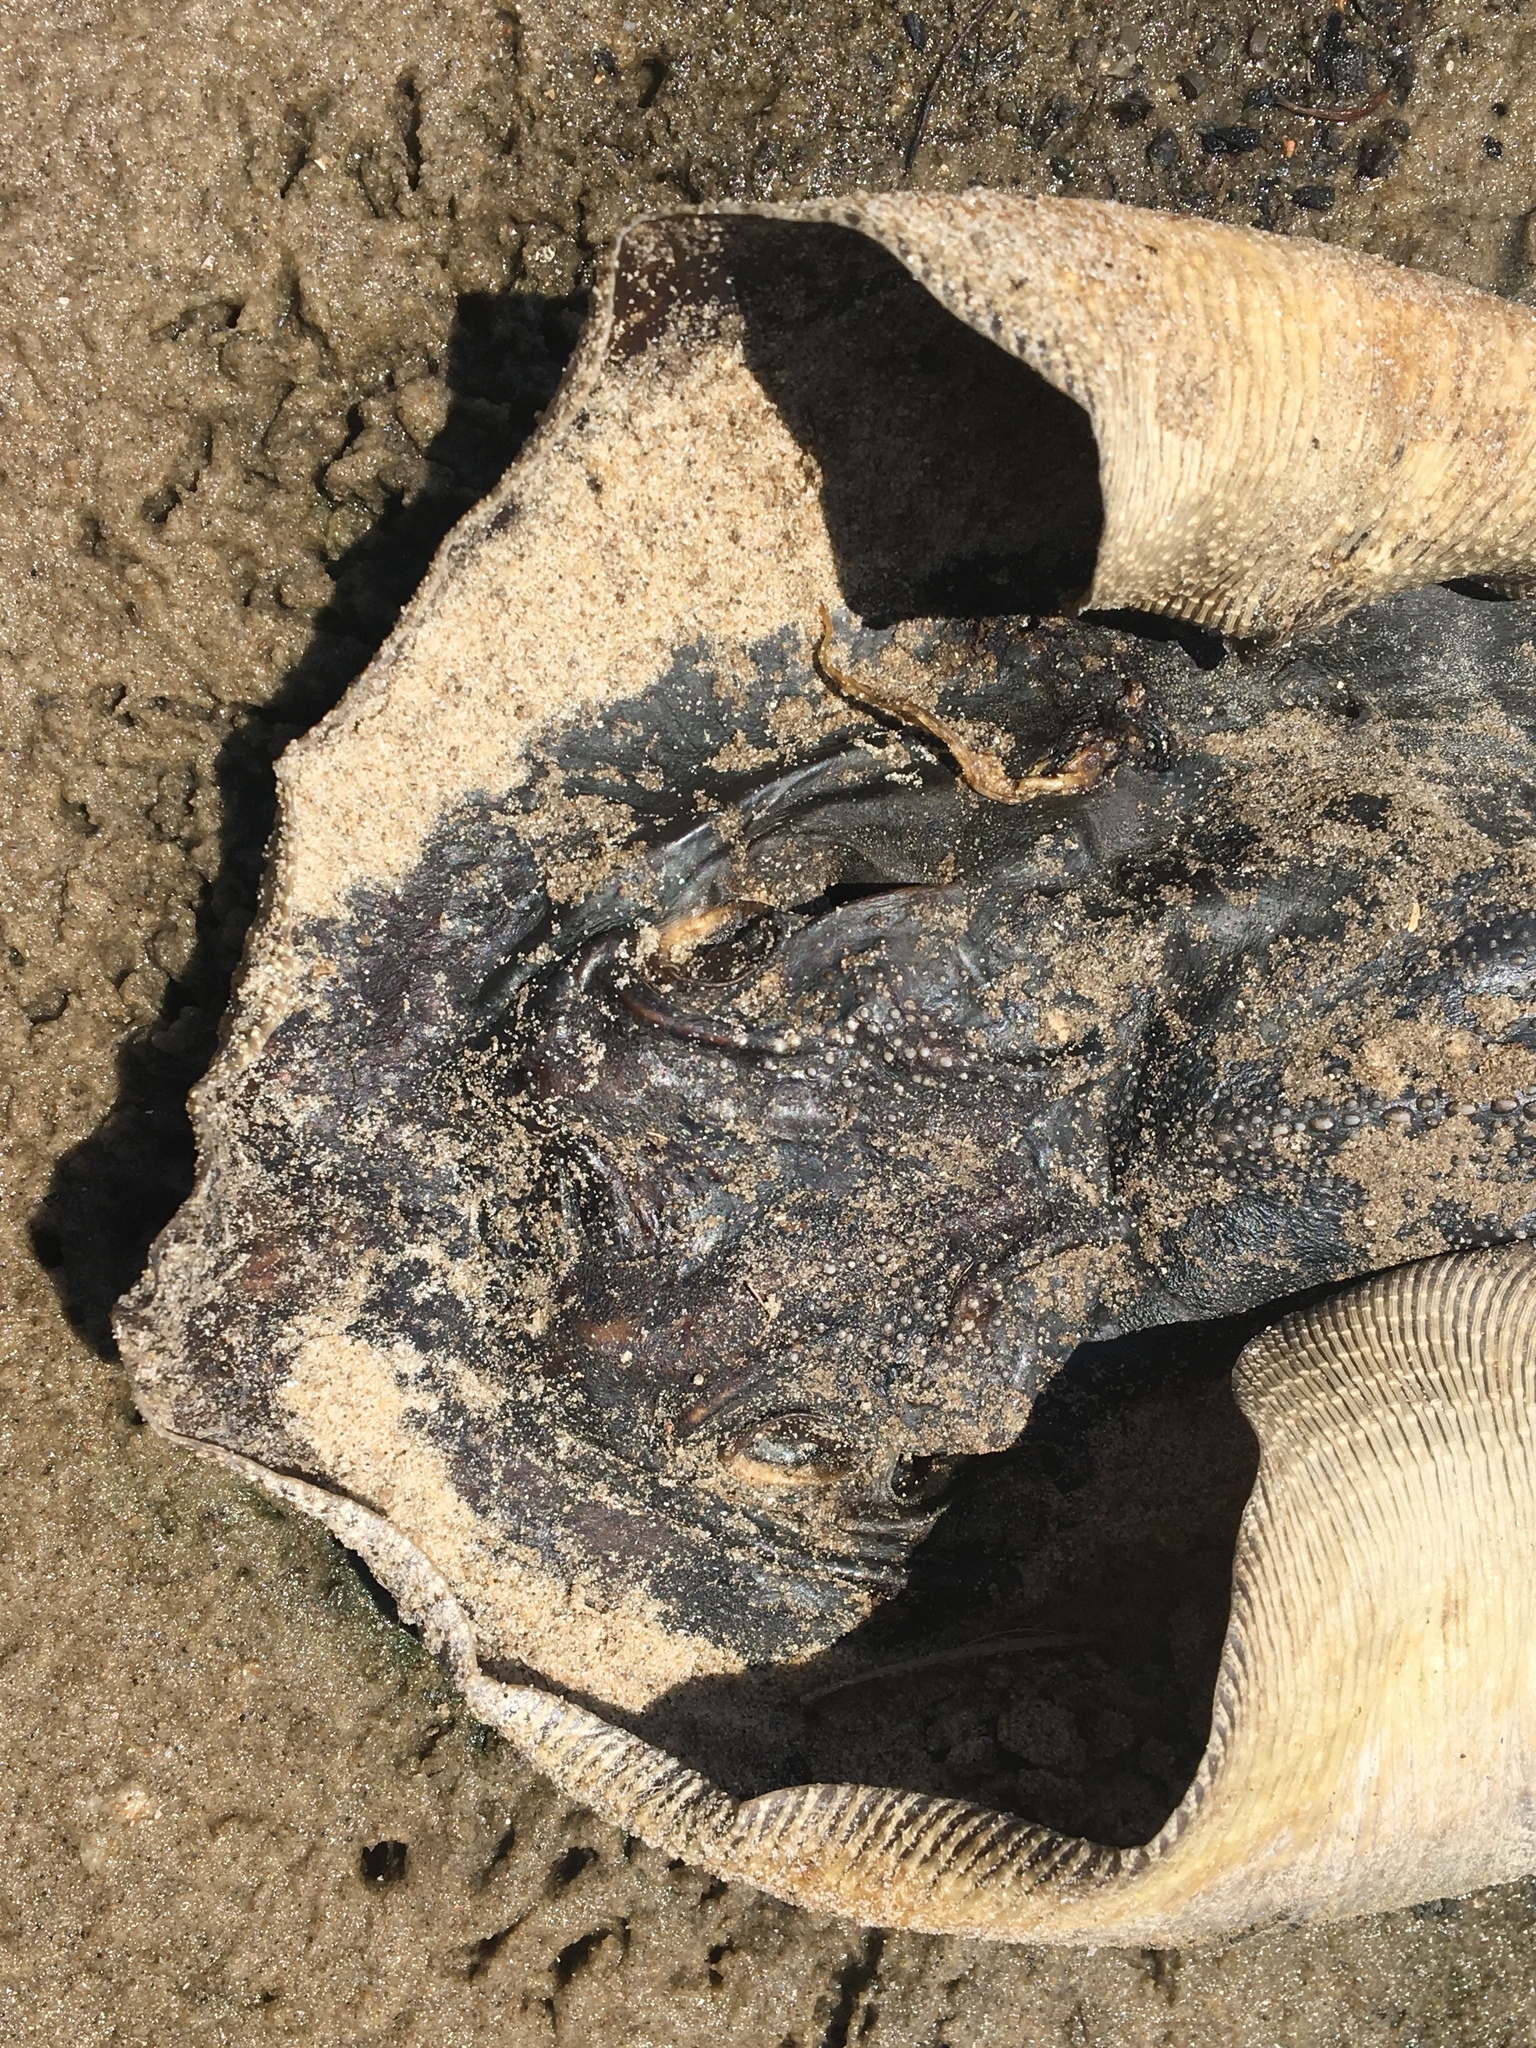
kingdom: Animalia
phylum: Chordata
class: Elasmobranchii
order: Myliobatiformes
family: Dasyatidae
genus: Hemitrygon
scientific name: Hemitrygon fluviorum
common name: Estuary stingray
